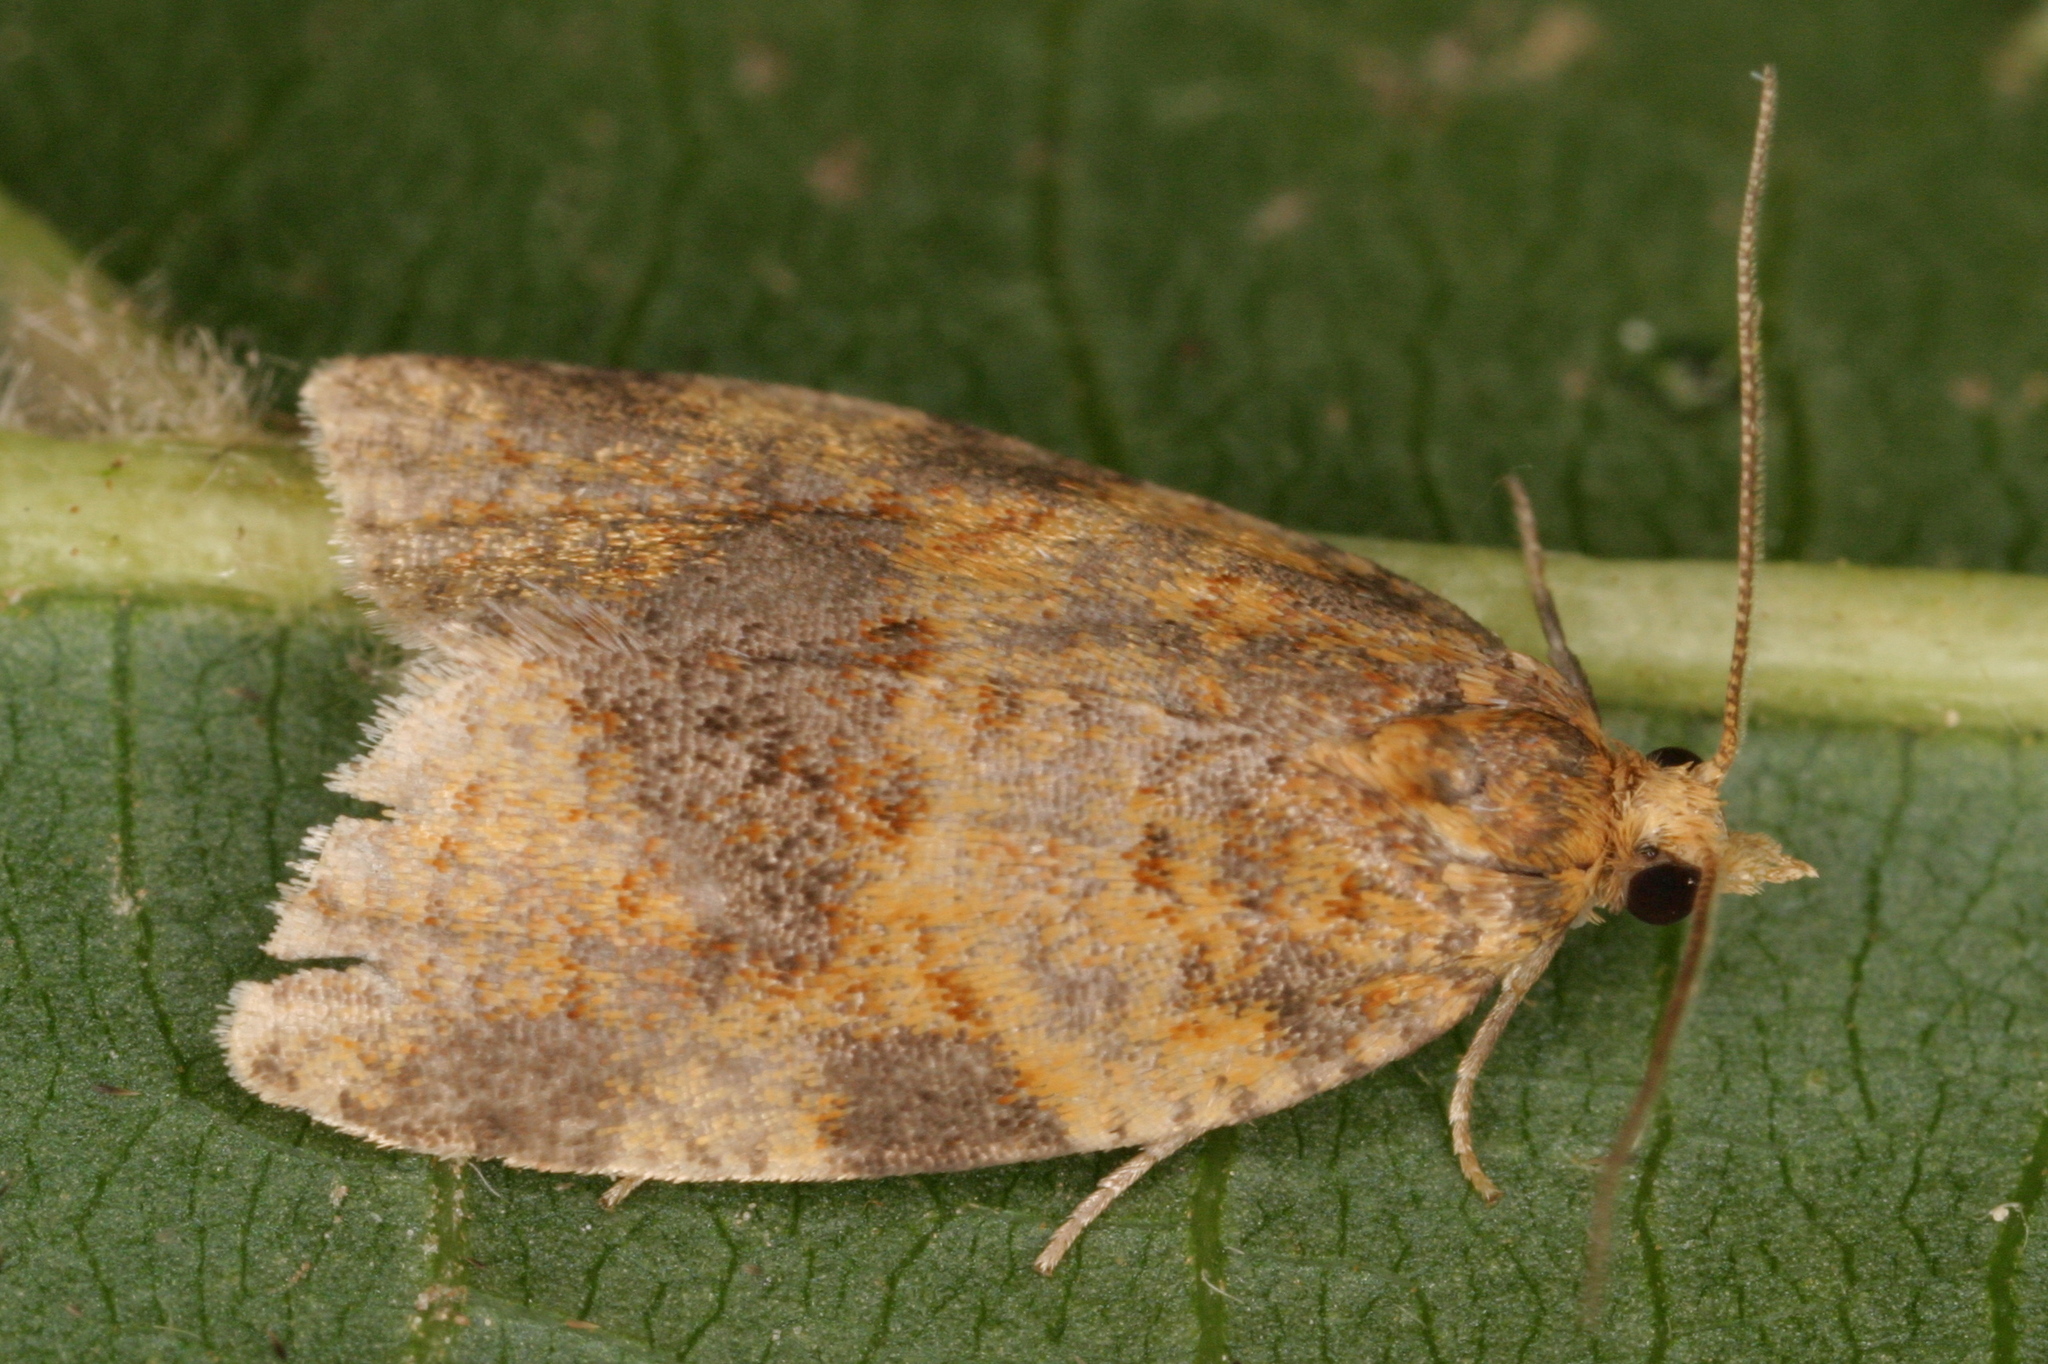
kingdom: Animalia
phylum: Arthropoda
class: Insecta
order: Lepidoptera
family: Tortricidae
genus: Epagoge
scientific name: Epagoge grotiana
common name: Brown-barred twist
